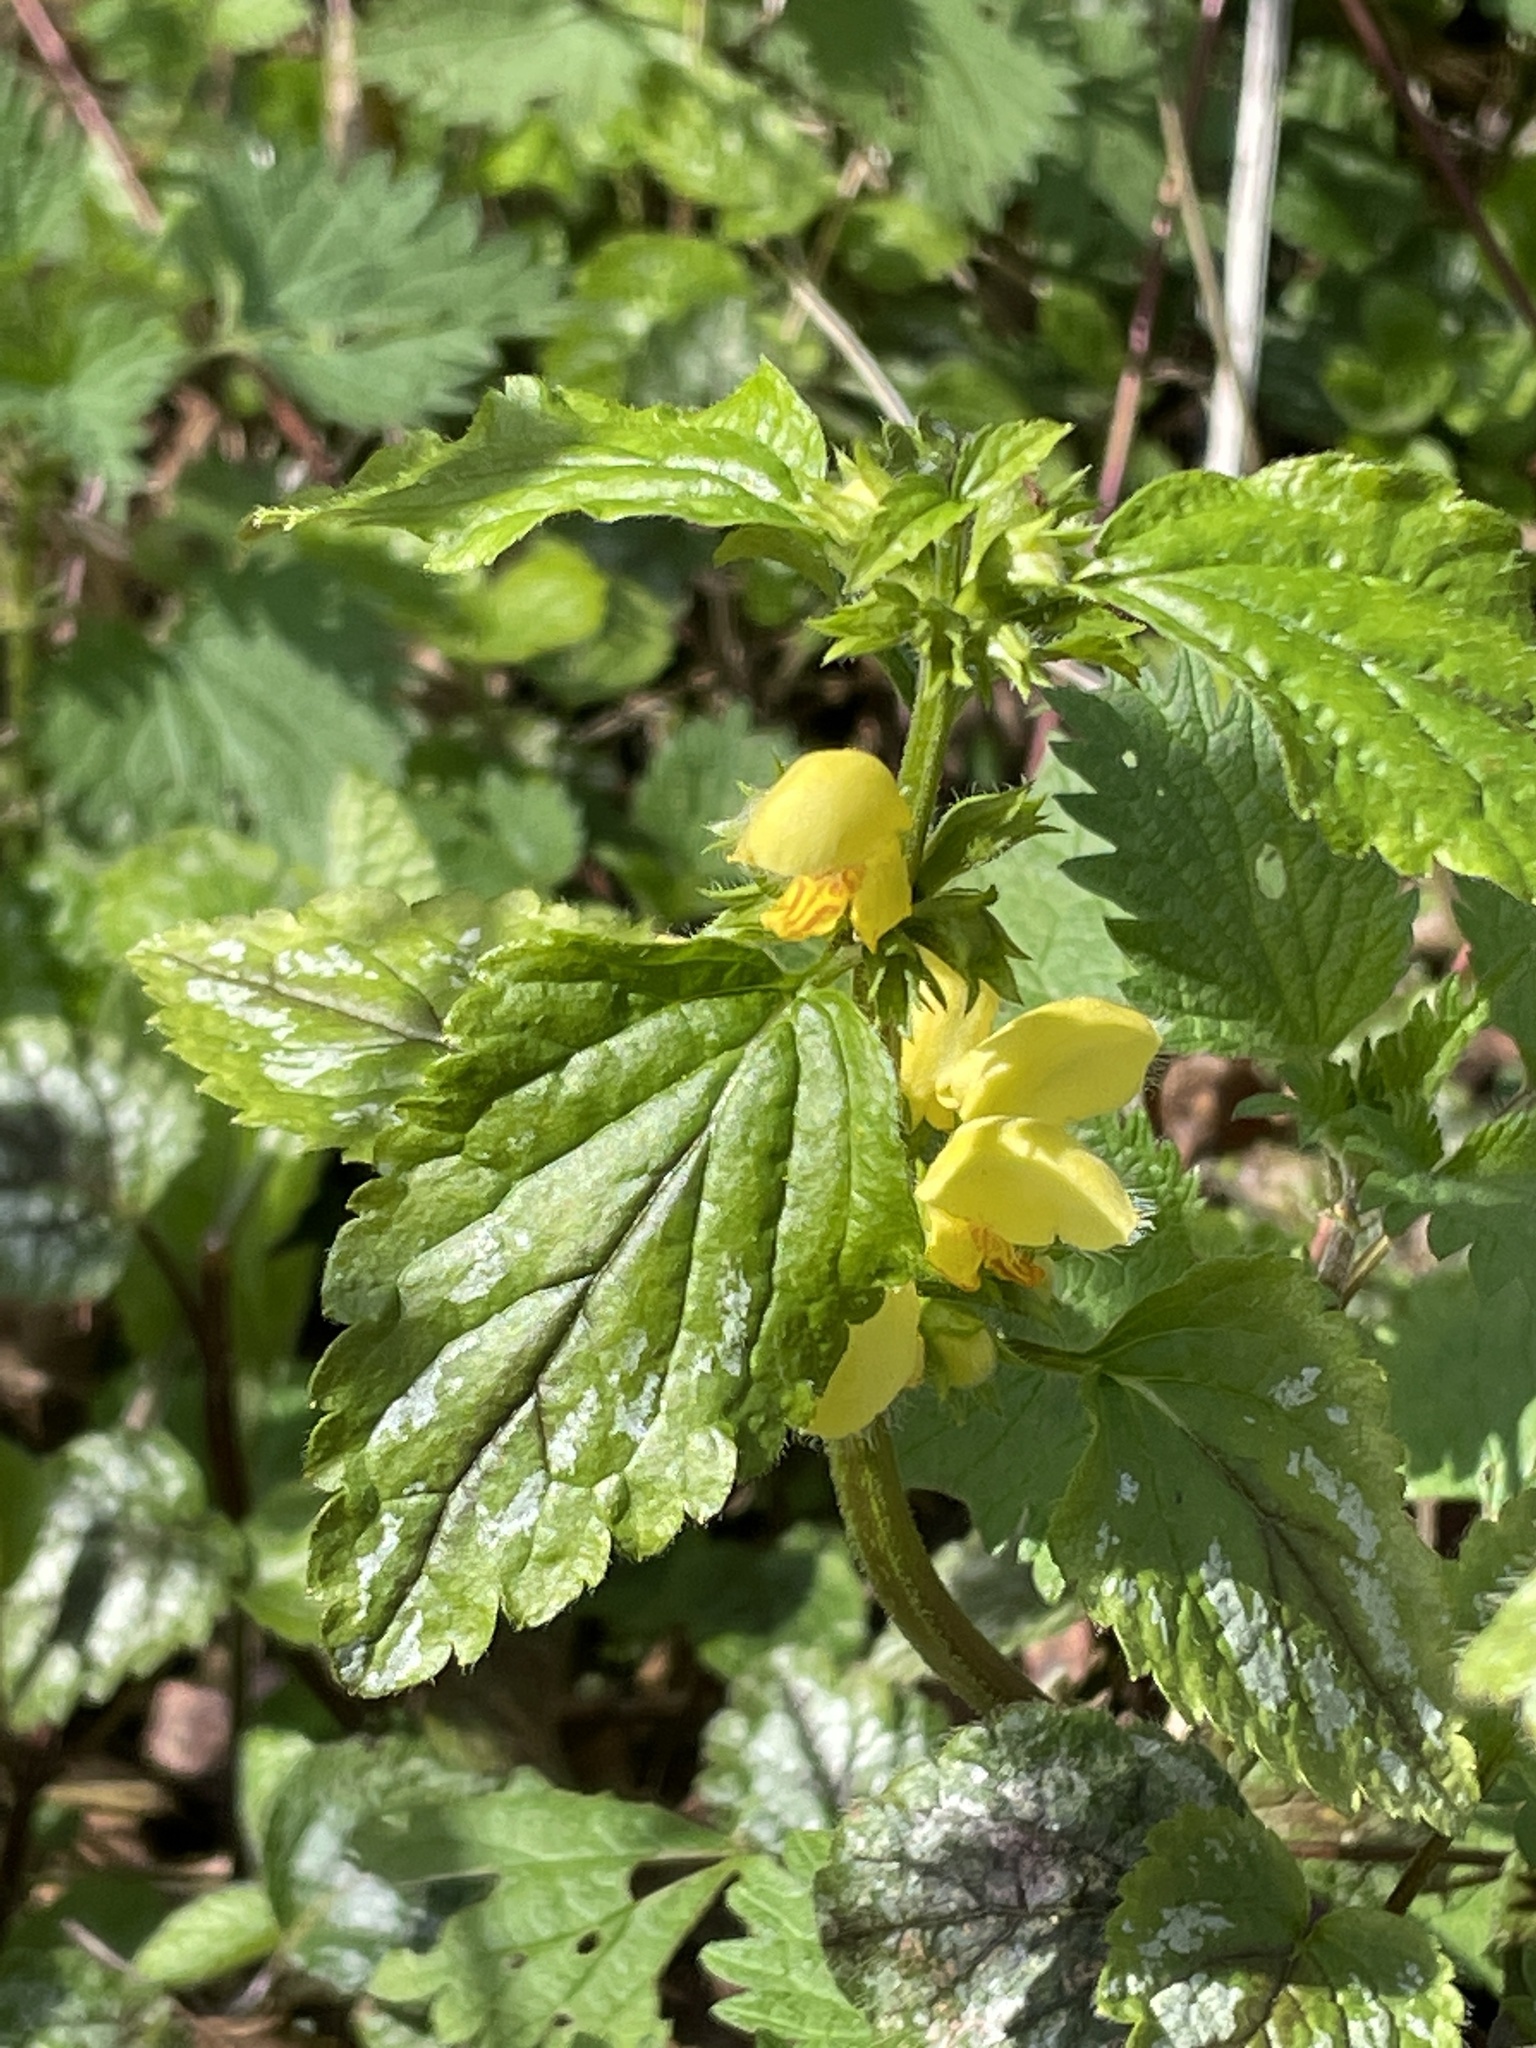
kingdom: Plantae
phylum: Tracheophyta
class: Magnoliopsida
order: Lamiales
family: Lamiaceae
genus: Lamium
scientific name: Lamium galeobdolon
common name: Yellow archangel
